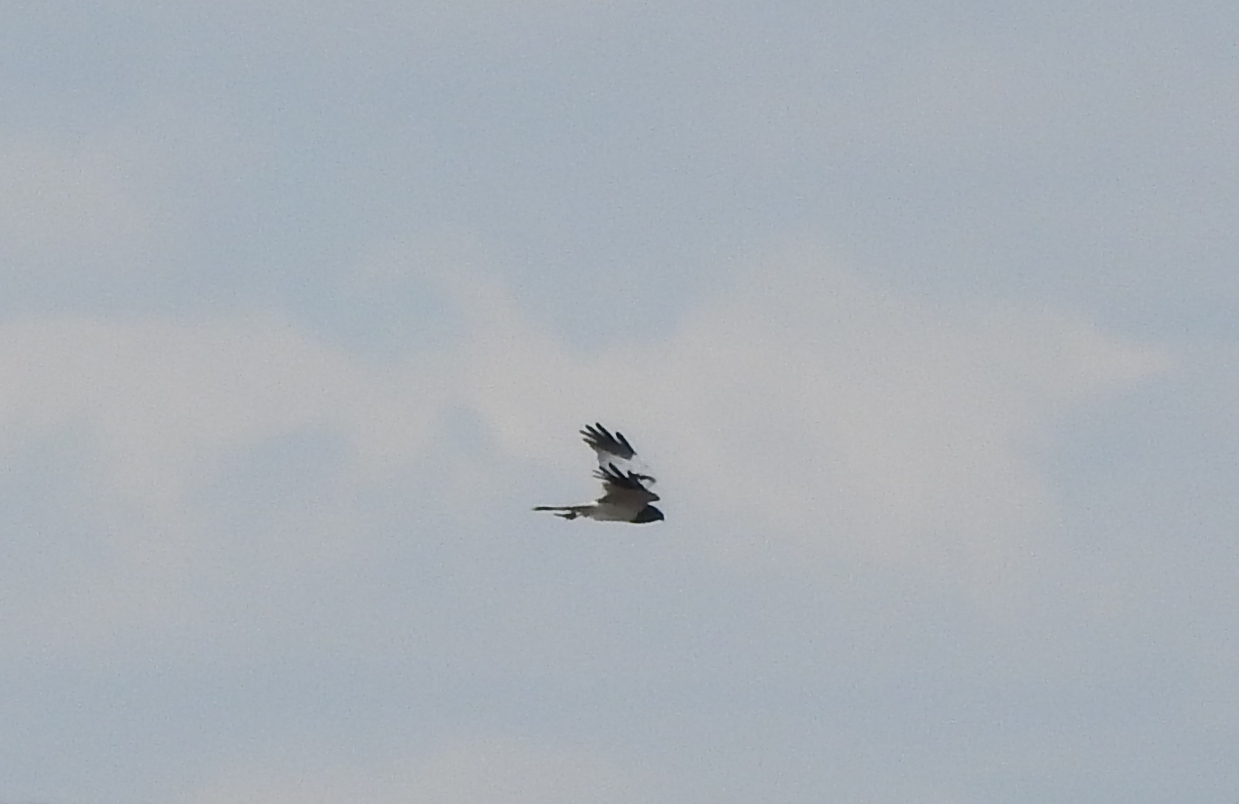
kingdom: Animalia
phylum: Chordata
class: Aves
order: Accipitriformes
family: Accipitridae
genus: Circus
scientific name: Circus melanoleucos
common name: Pied harrier
